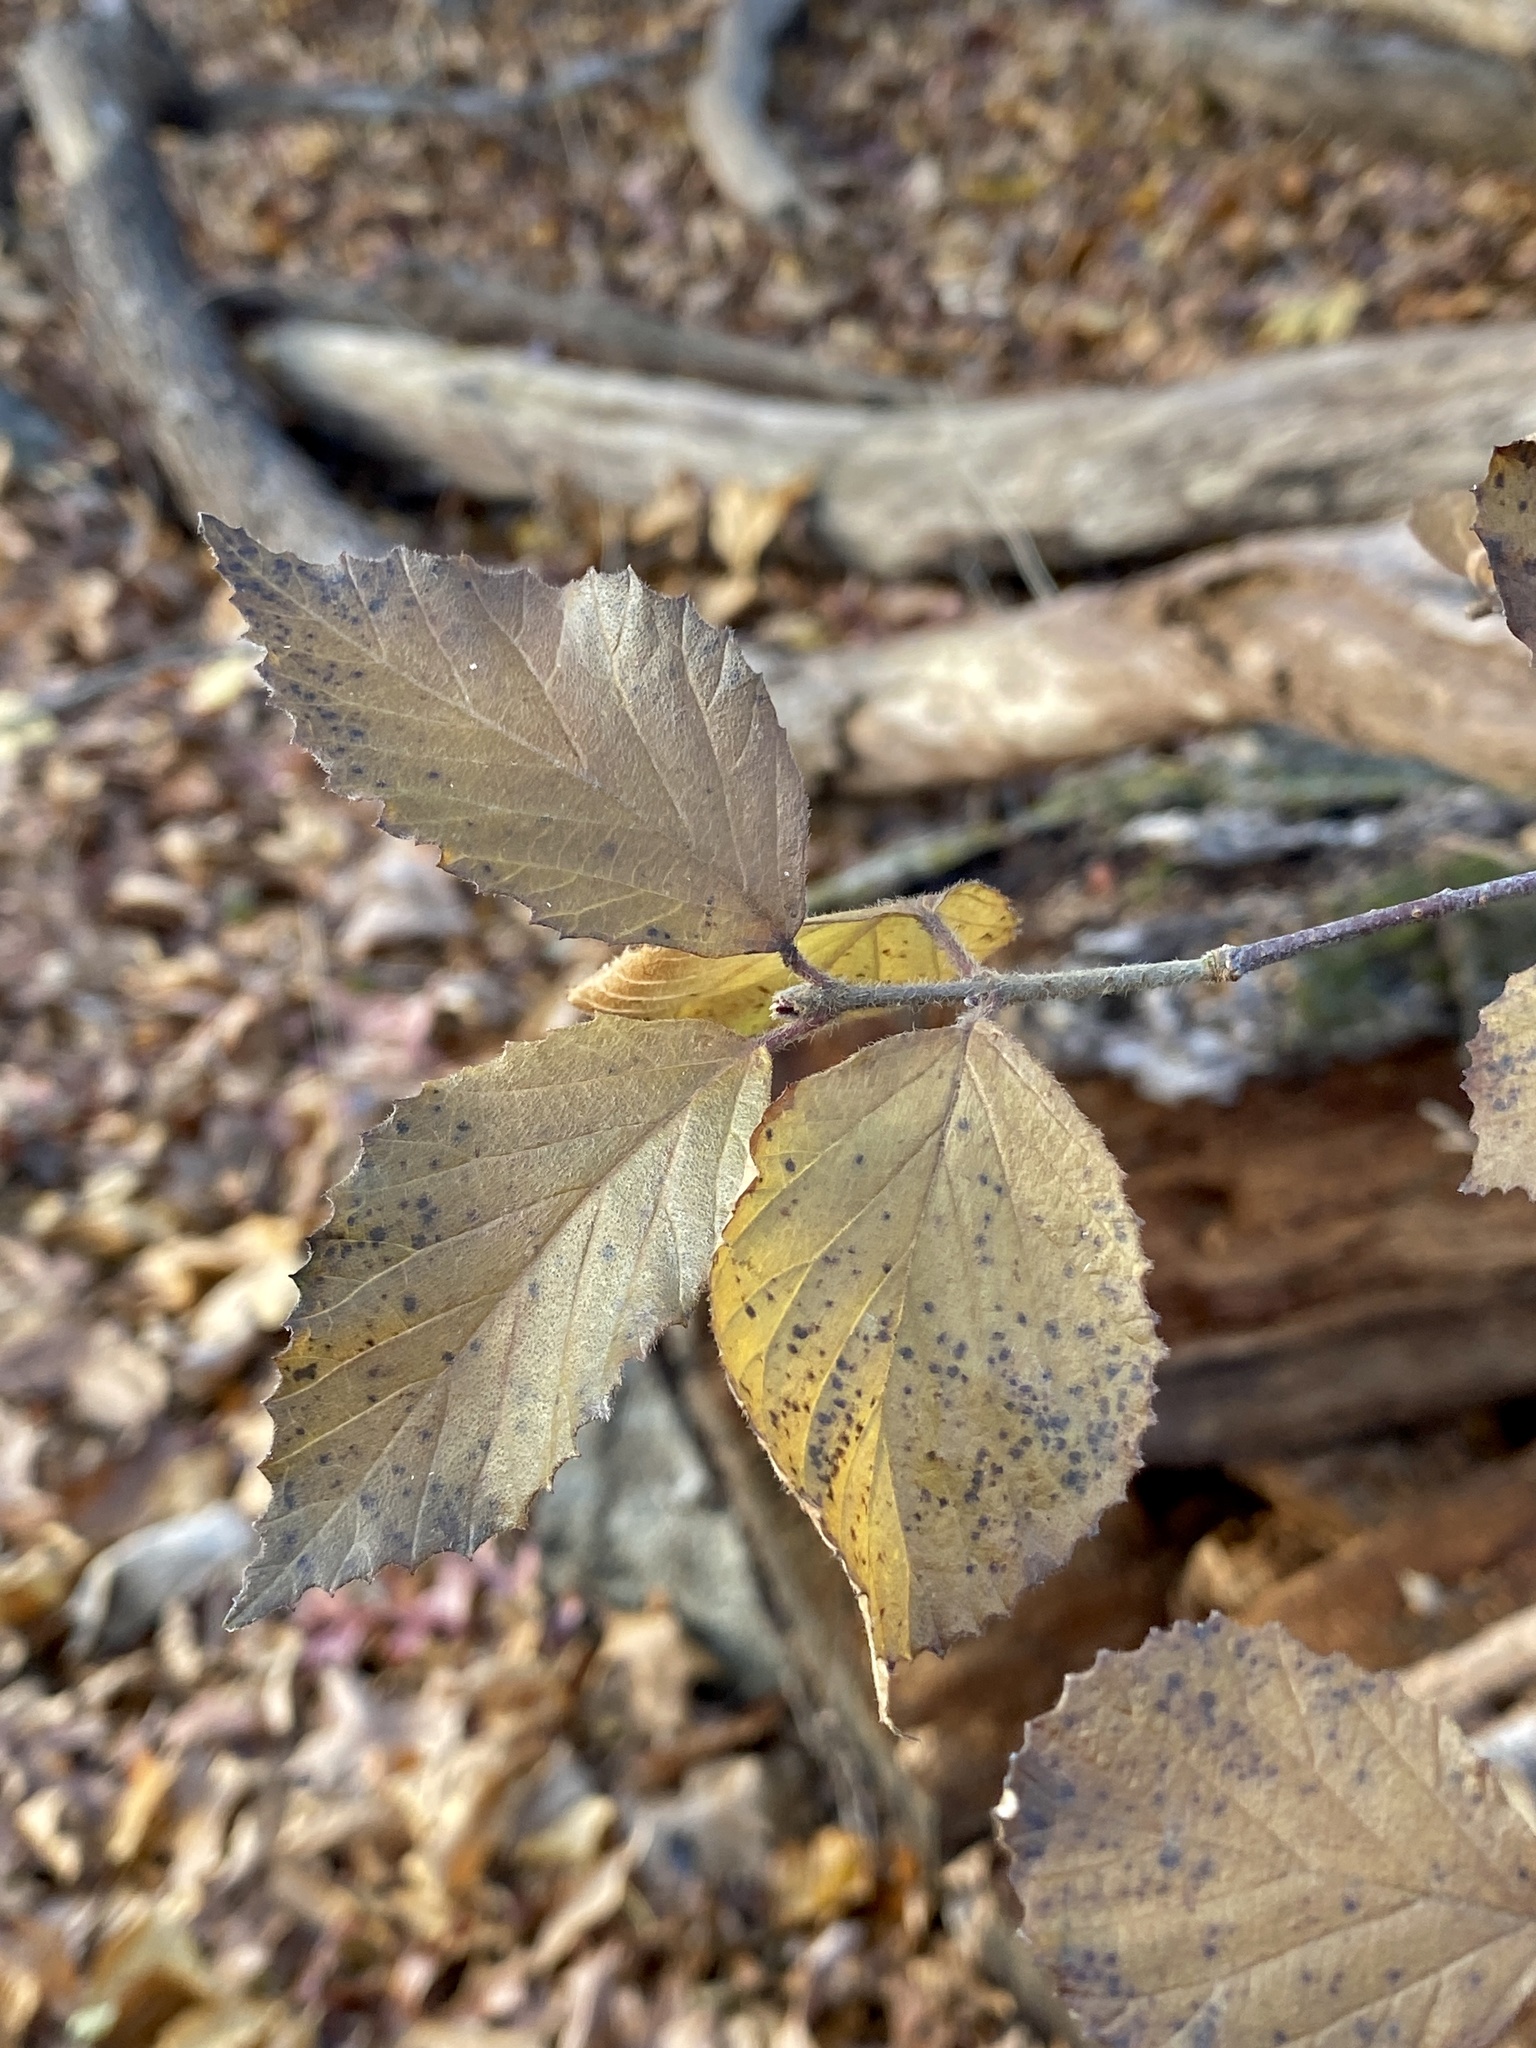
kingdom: Plantae
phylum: Tracheophyta
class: Magnoliopsida
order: Dipsacales
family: Viburnaceae
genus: Viburnum
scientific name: Viburnum dilatatum
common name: Linden arrowwood
